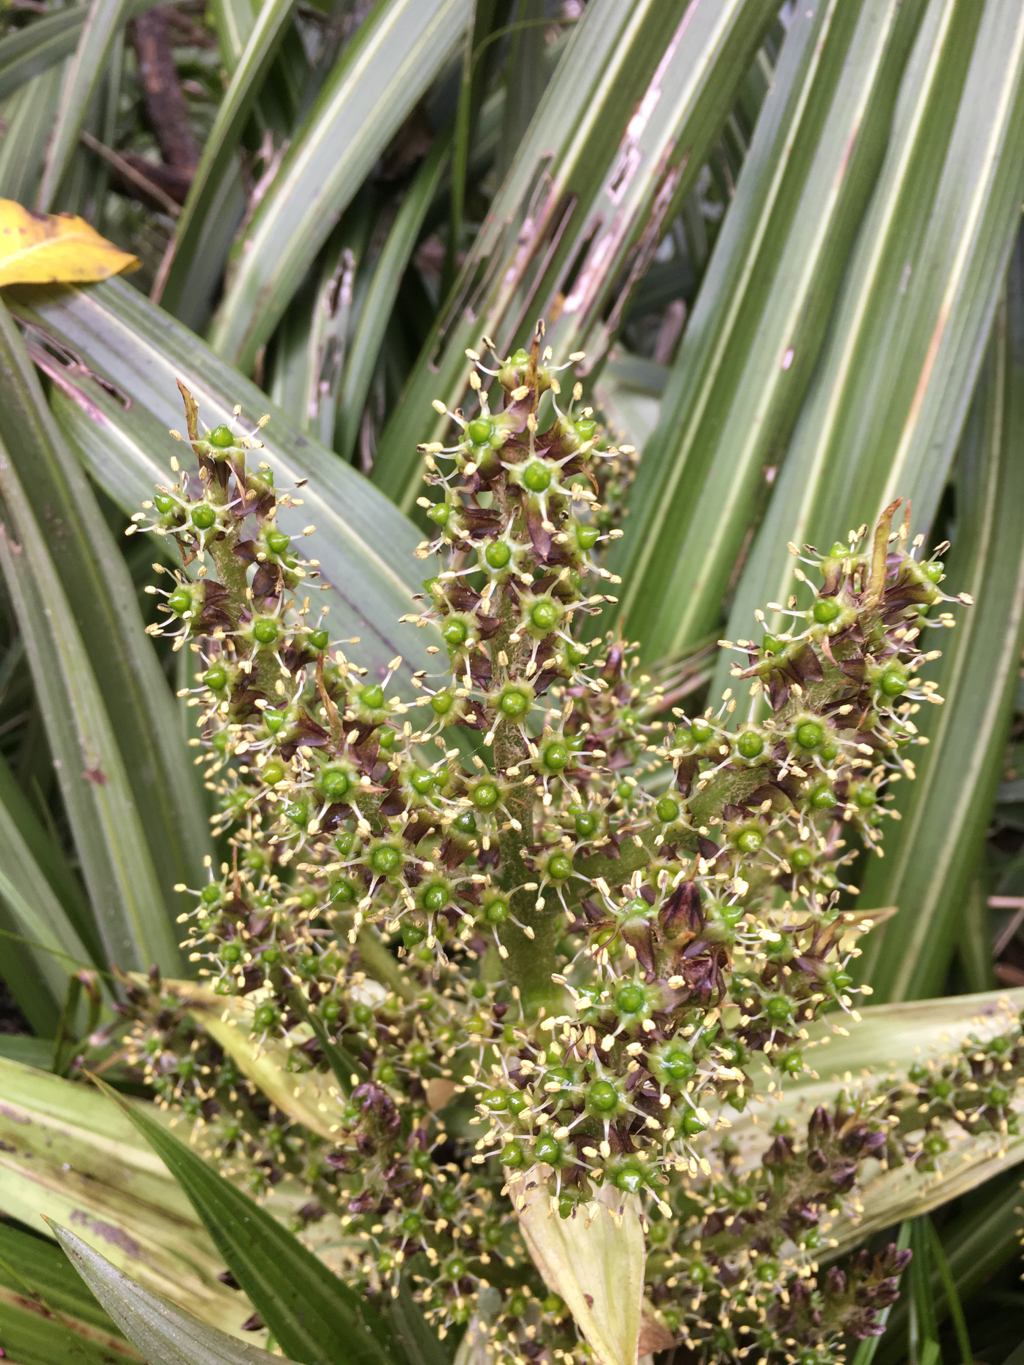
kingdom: Plantae
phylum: Tracheophyta
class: Liliopsida
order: Asparagales
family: Asteliaceae
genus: Astelia
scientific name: Astelia fragrans
